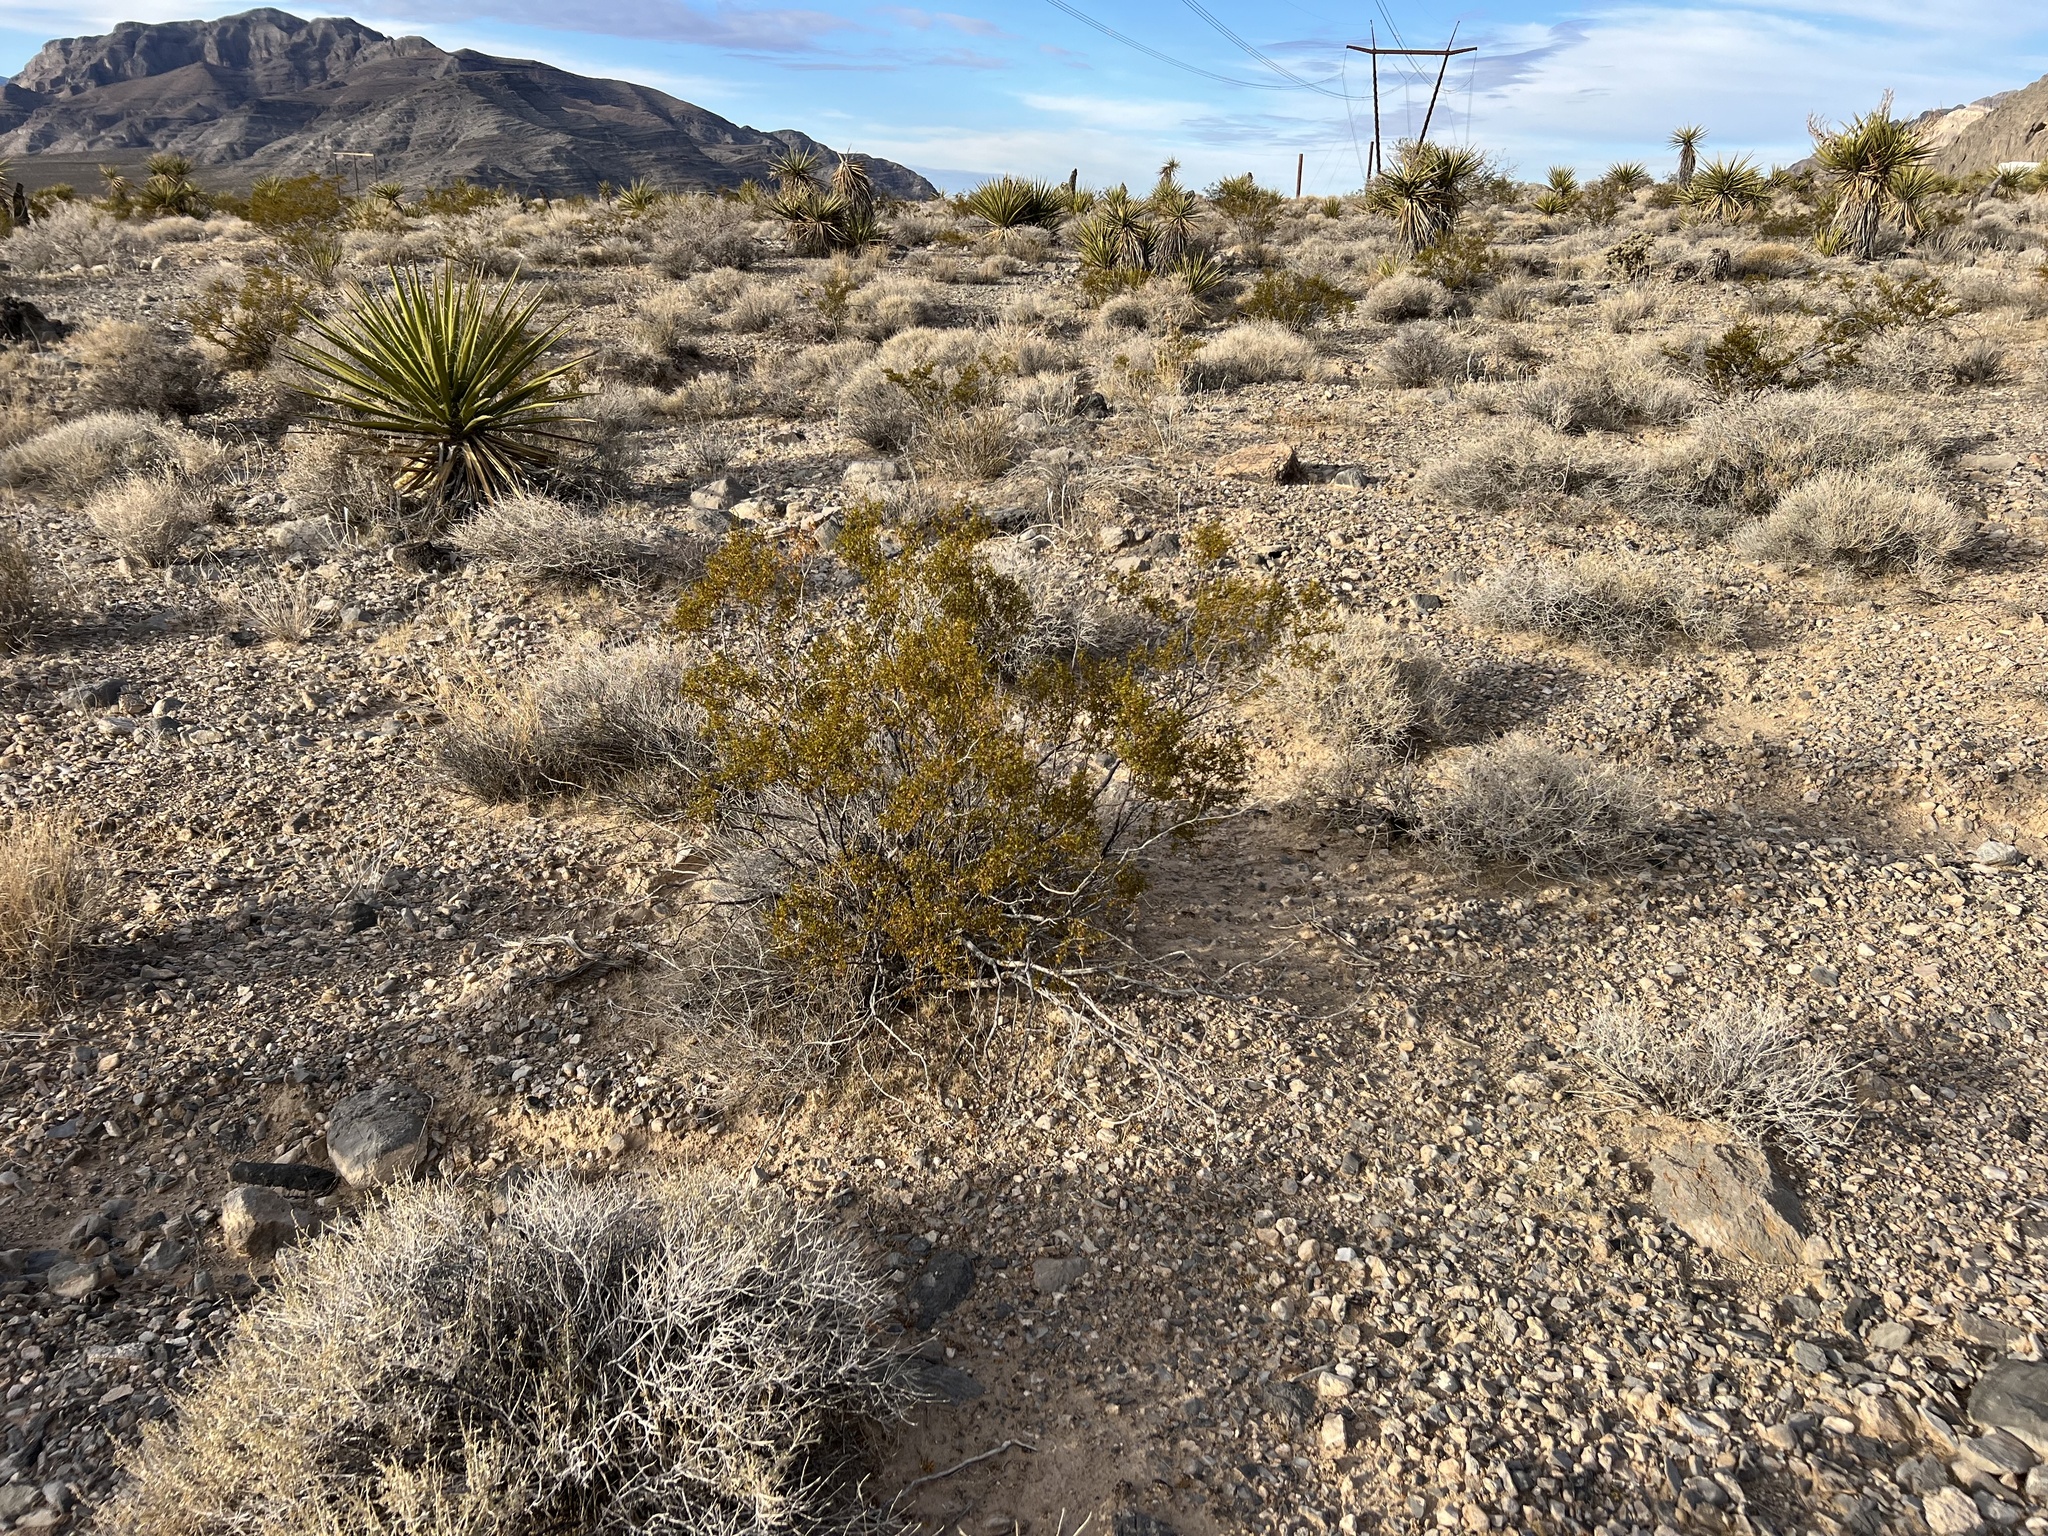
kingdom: Plantae
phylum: Tracheophyta
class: Magnoliopsida
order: Zygophyllales
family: Zygophyllaceae
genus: Larrea
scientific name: Larrea tridentata
